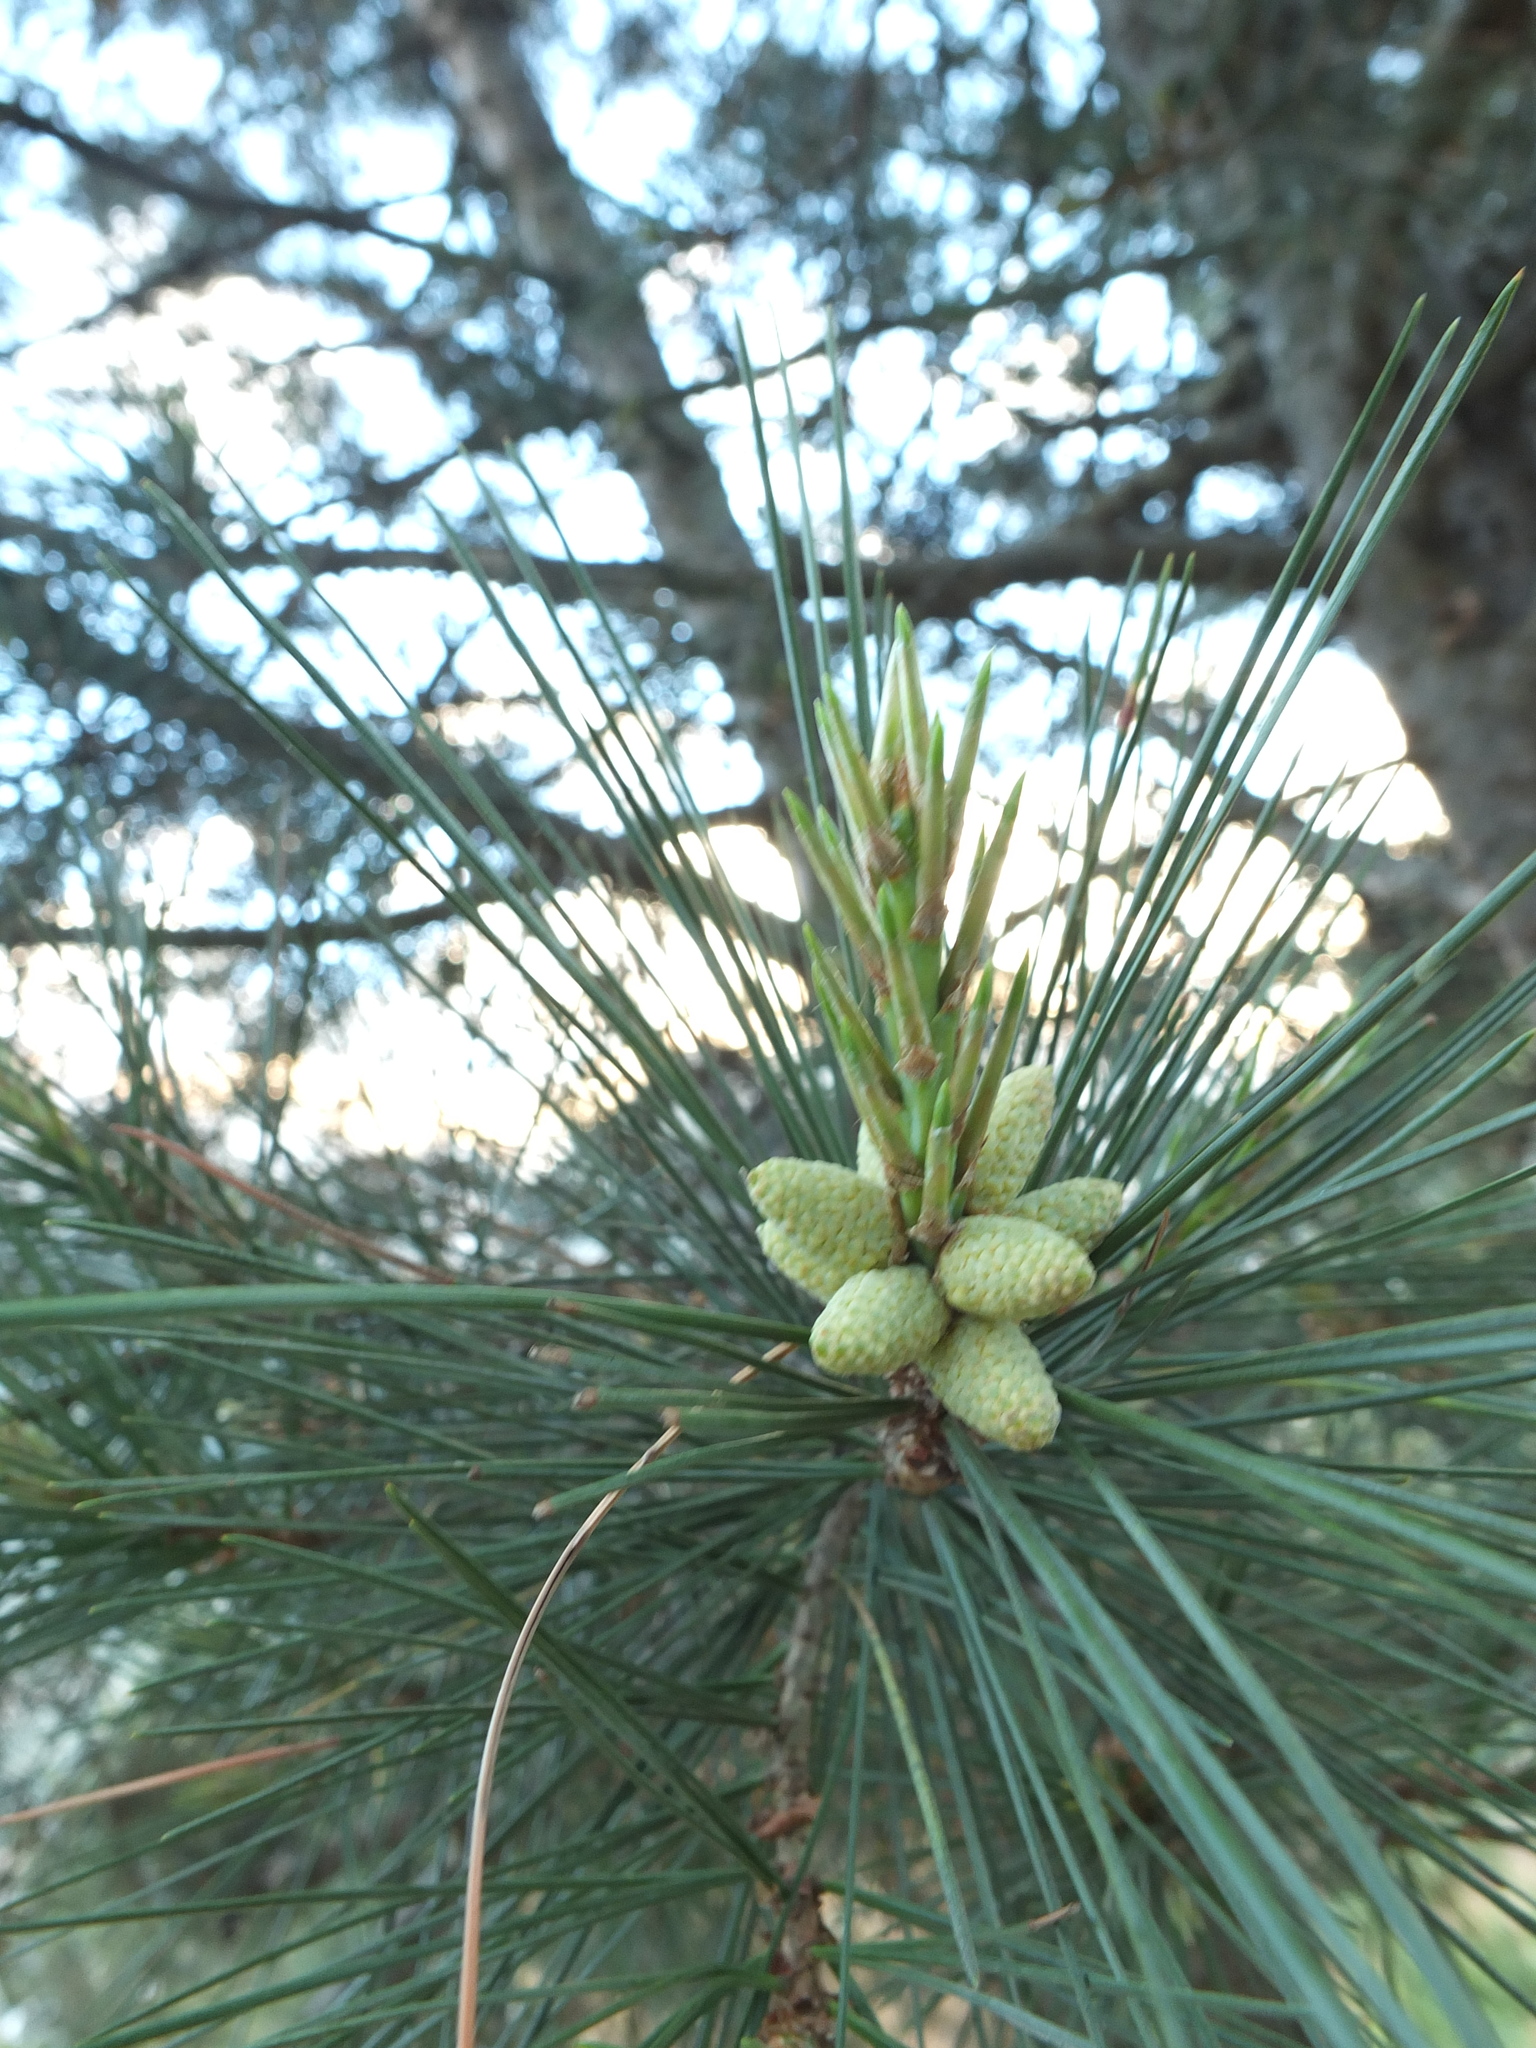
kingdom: Plantae
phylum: Tracheophyta
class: Pinopsida
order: Pinales
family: Pinaceae
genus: Pinus
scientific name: Pinus gerardiana
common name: Chilgoza pine
